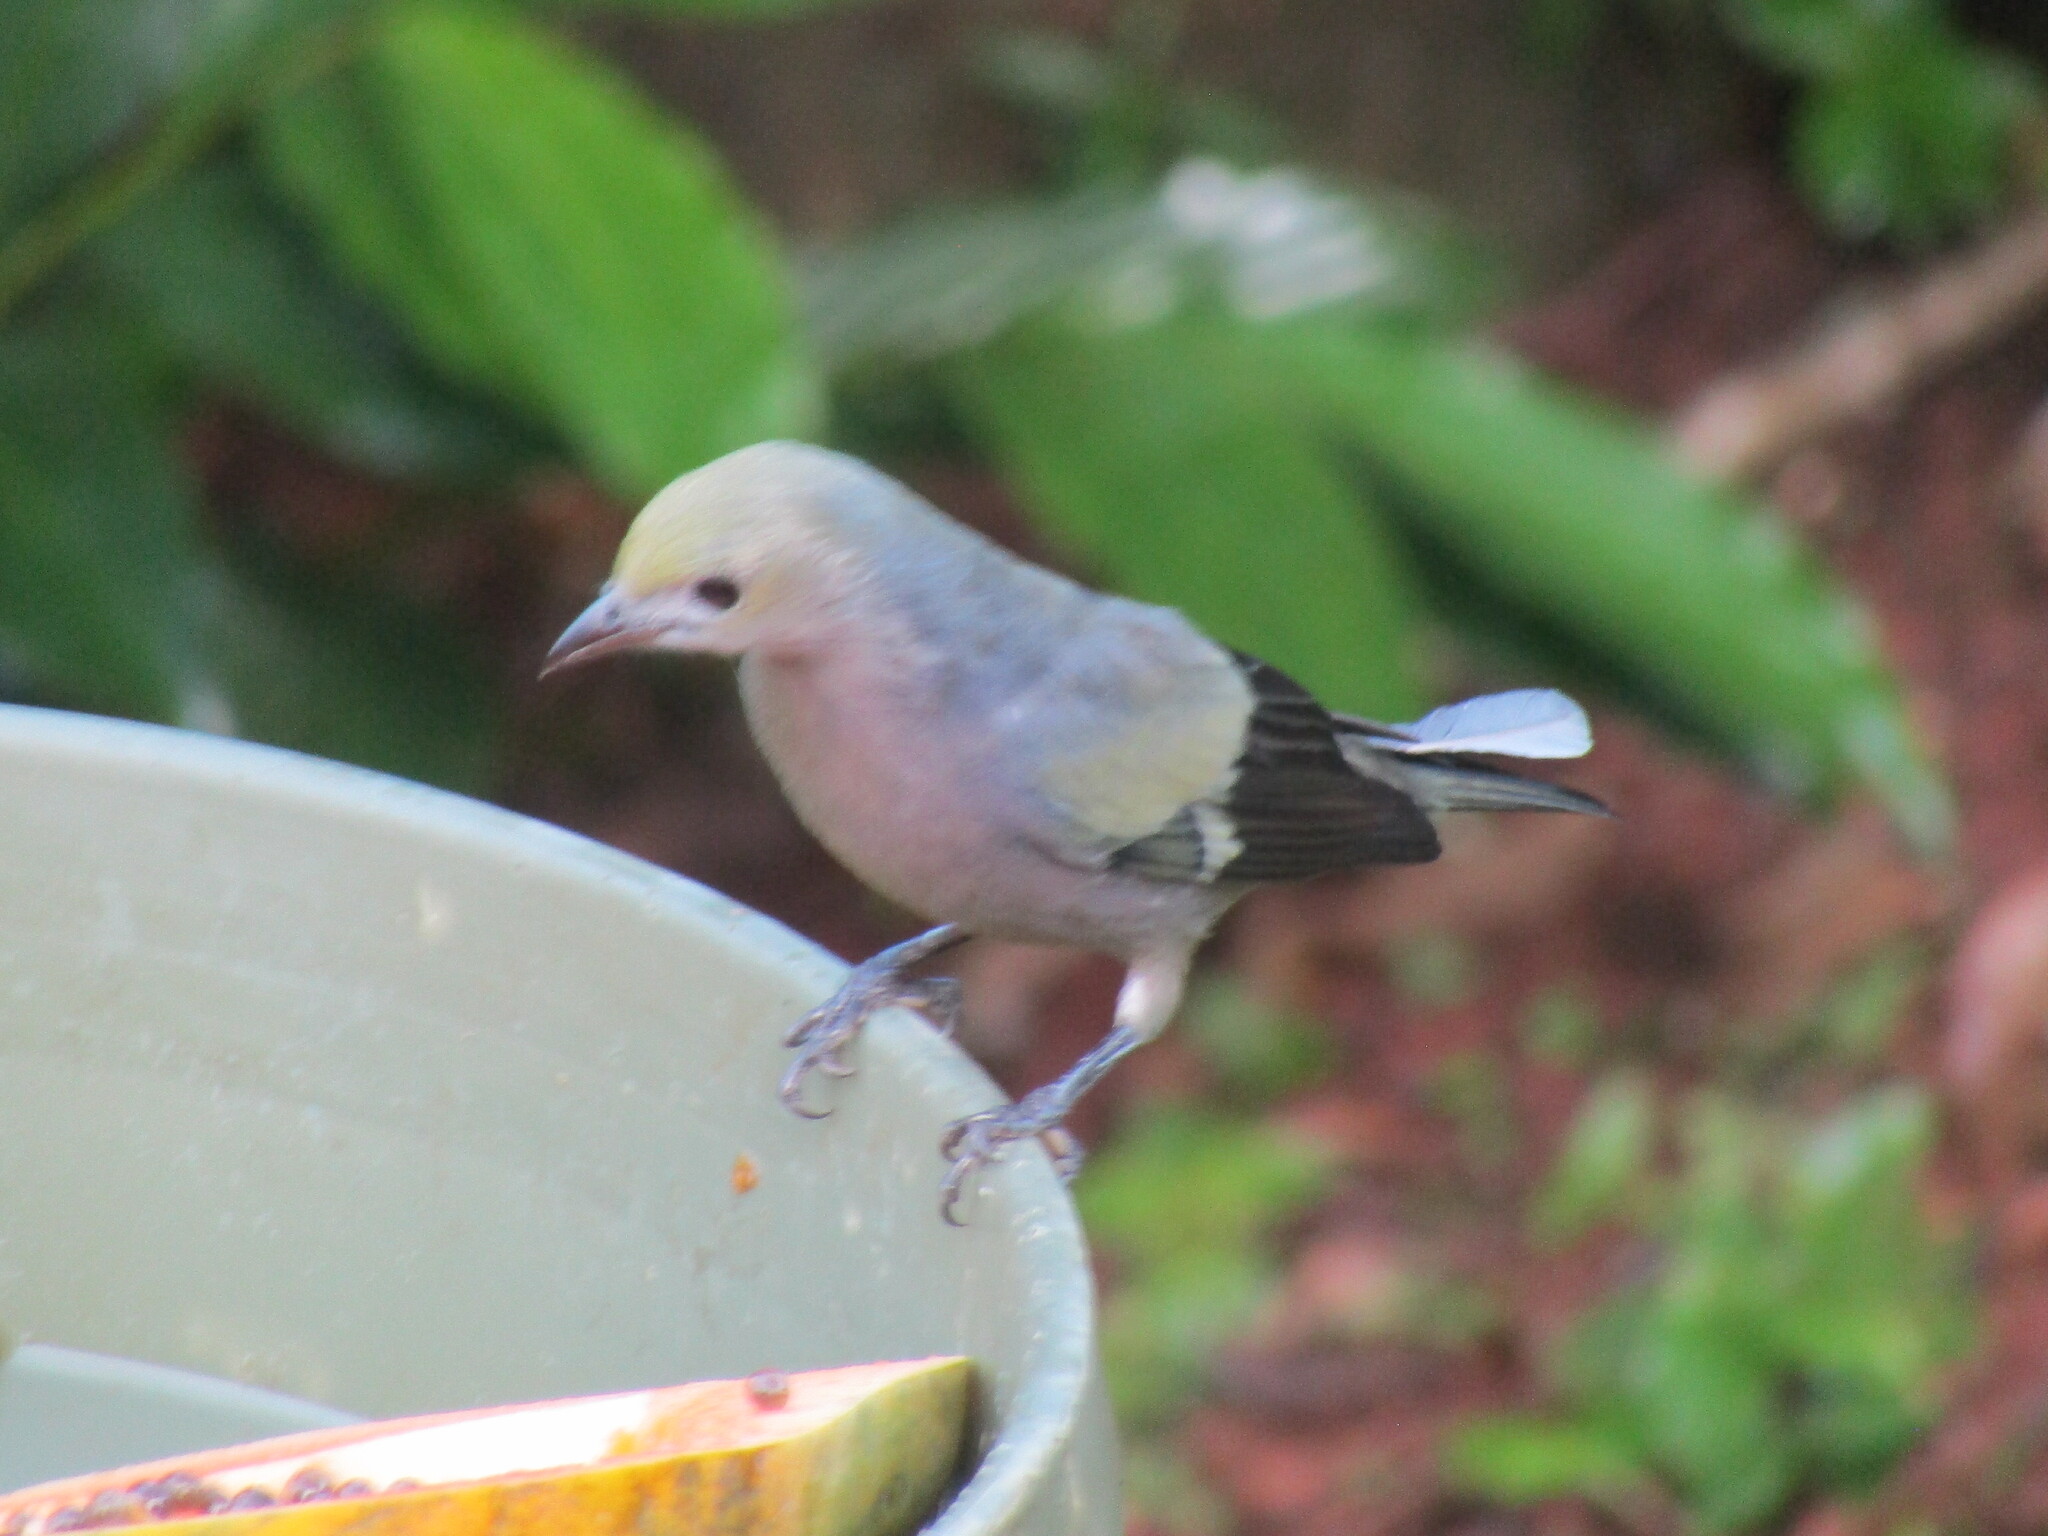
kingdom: Animalia
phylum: Chordata
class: Aves
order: Passeriformes
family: Thraupidae
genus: Thraupis
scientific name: Thraupis palmarum
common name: Palm tanager
